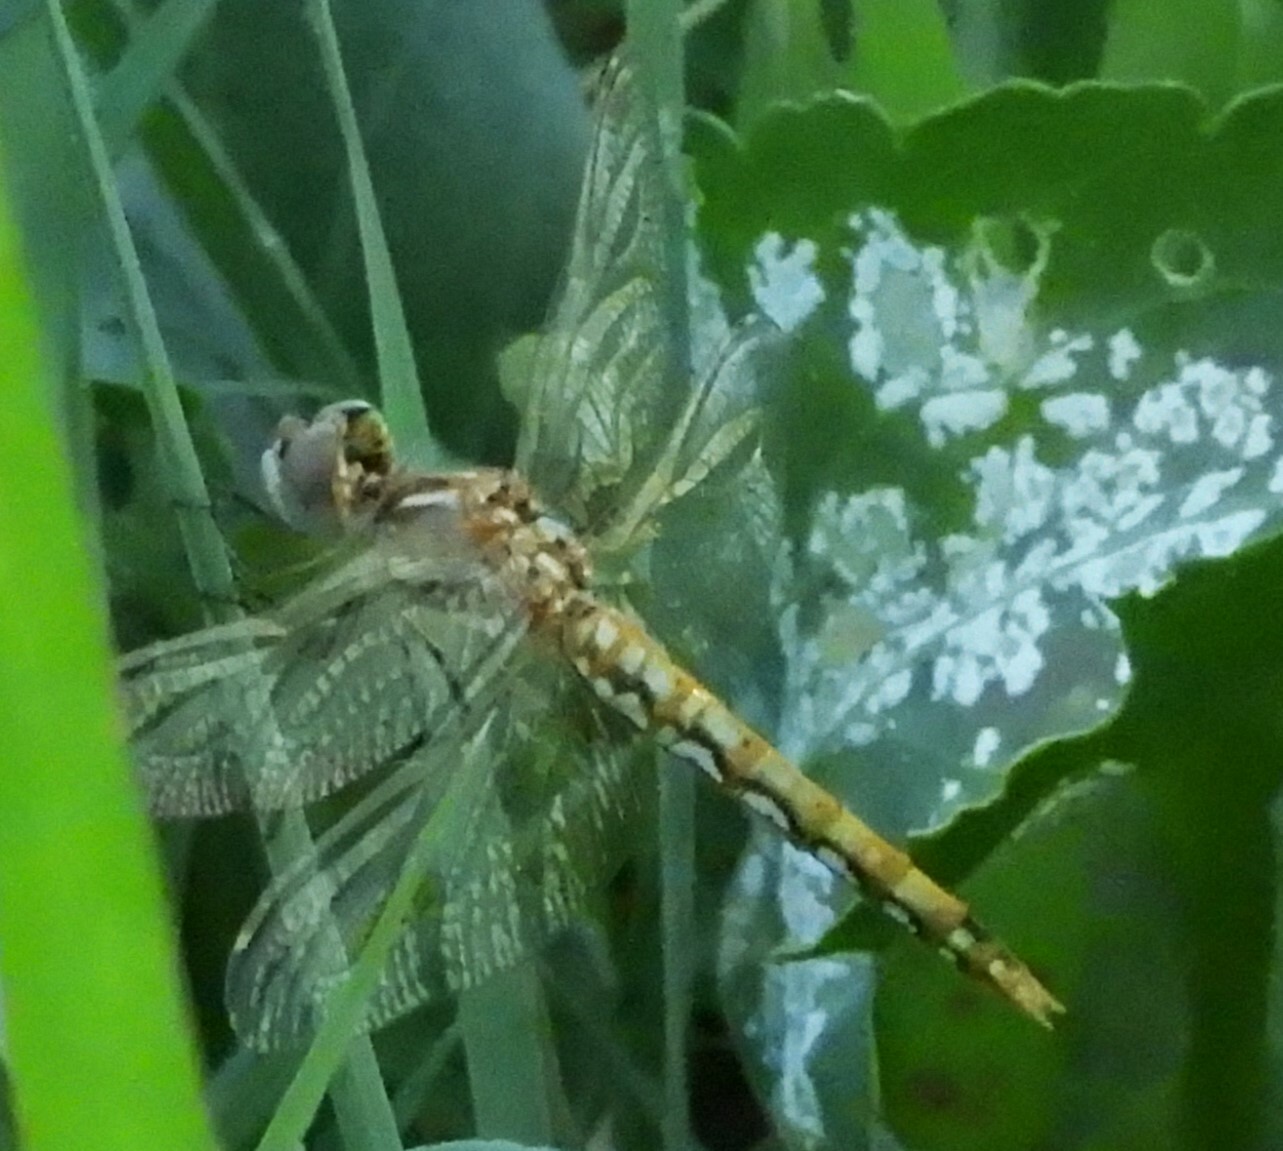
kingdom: Animalia
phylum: Arthropoda
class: Insecta
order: Odonata
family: Libellulidae
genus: Sympetrum
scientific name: Sympetrum corruptum
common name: Variegated meadowhawk
